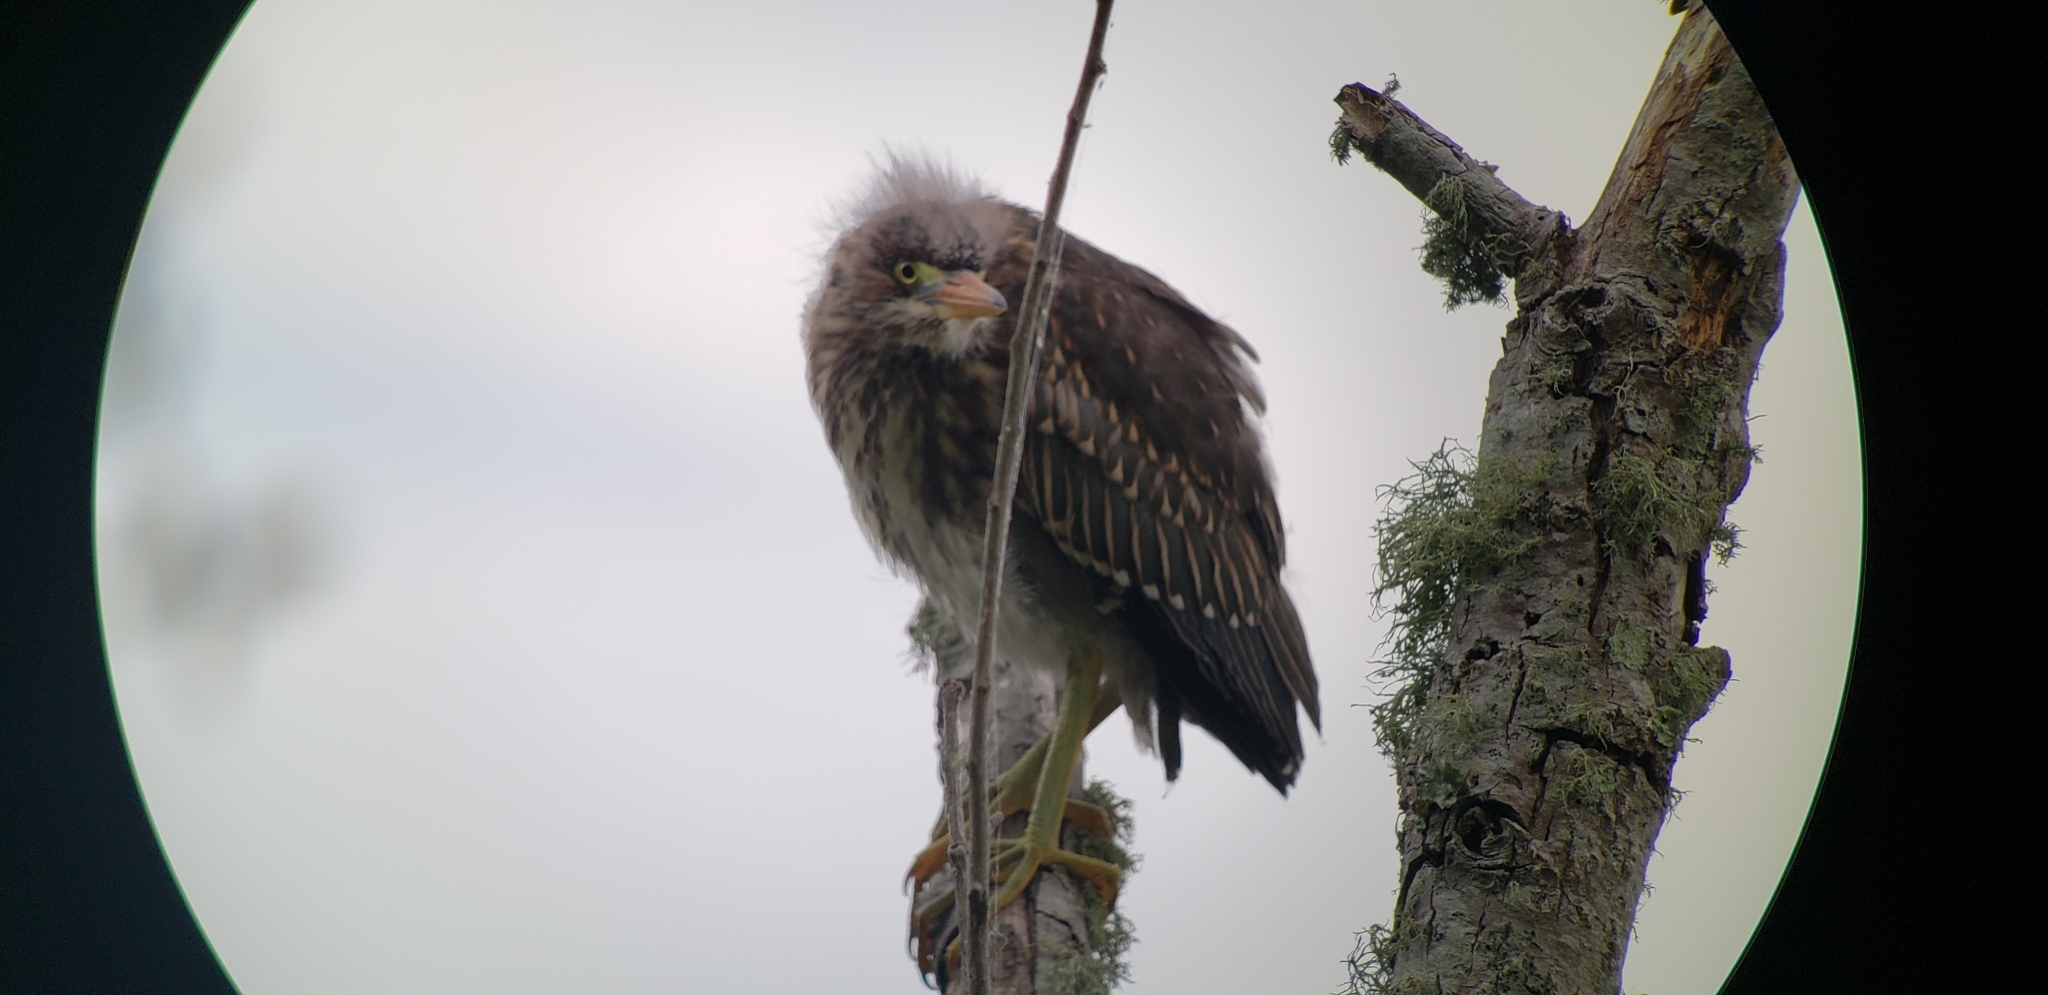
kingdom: Animalia
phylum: Chordata
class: Aves
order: Pelecaniformes
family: Ardeidae
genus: Butorides
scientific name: Butorides virescens
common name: Green heron
